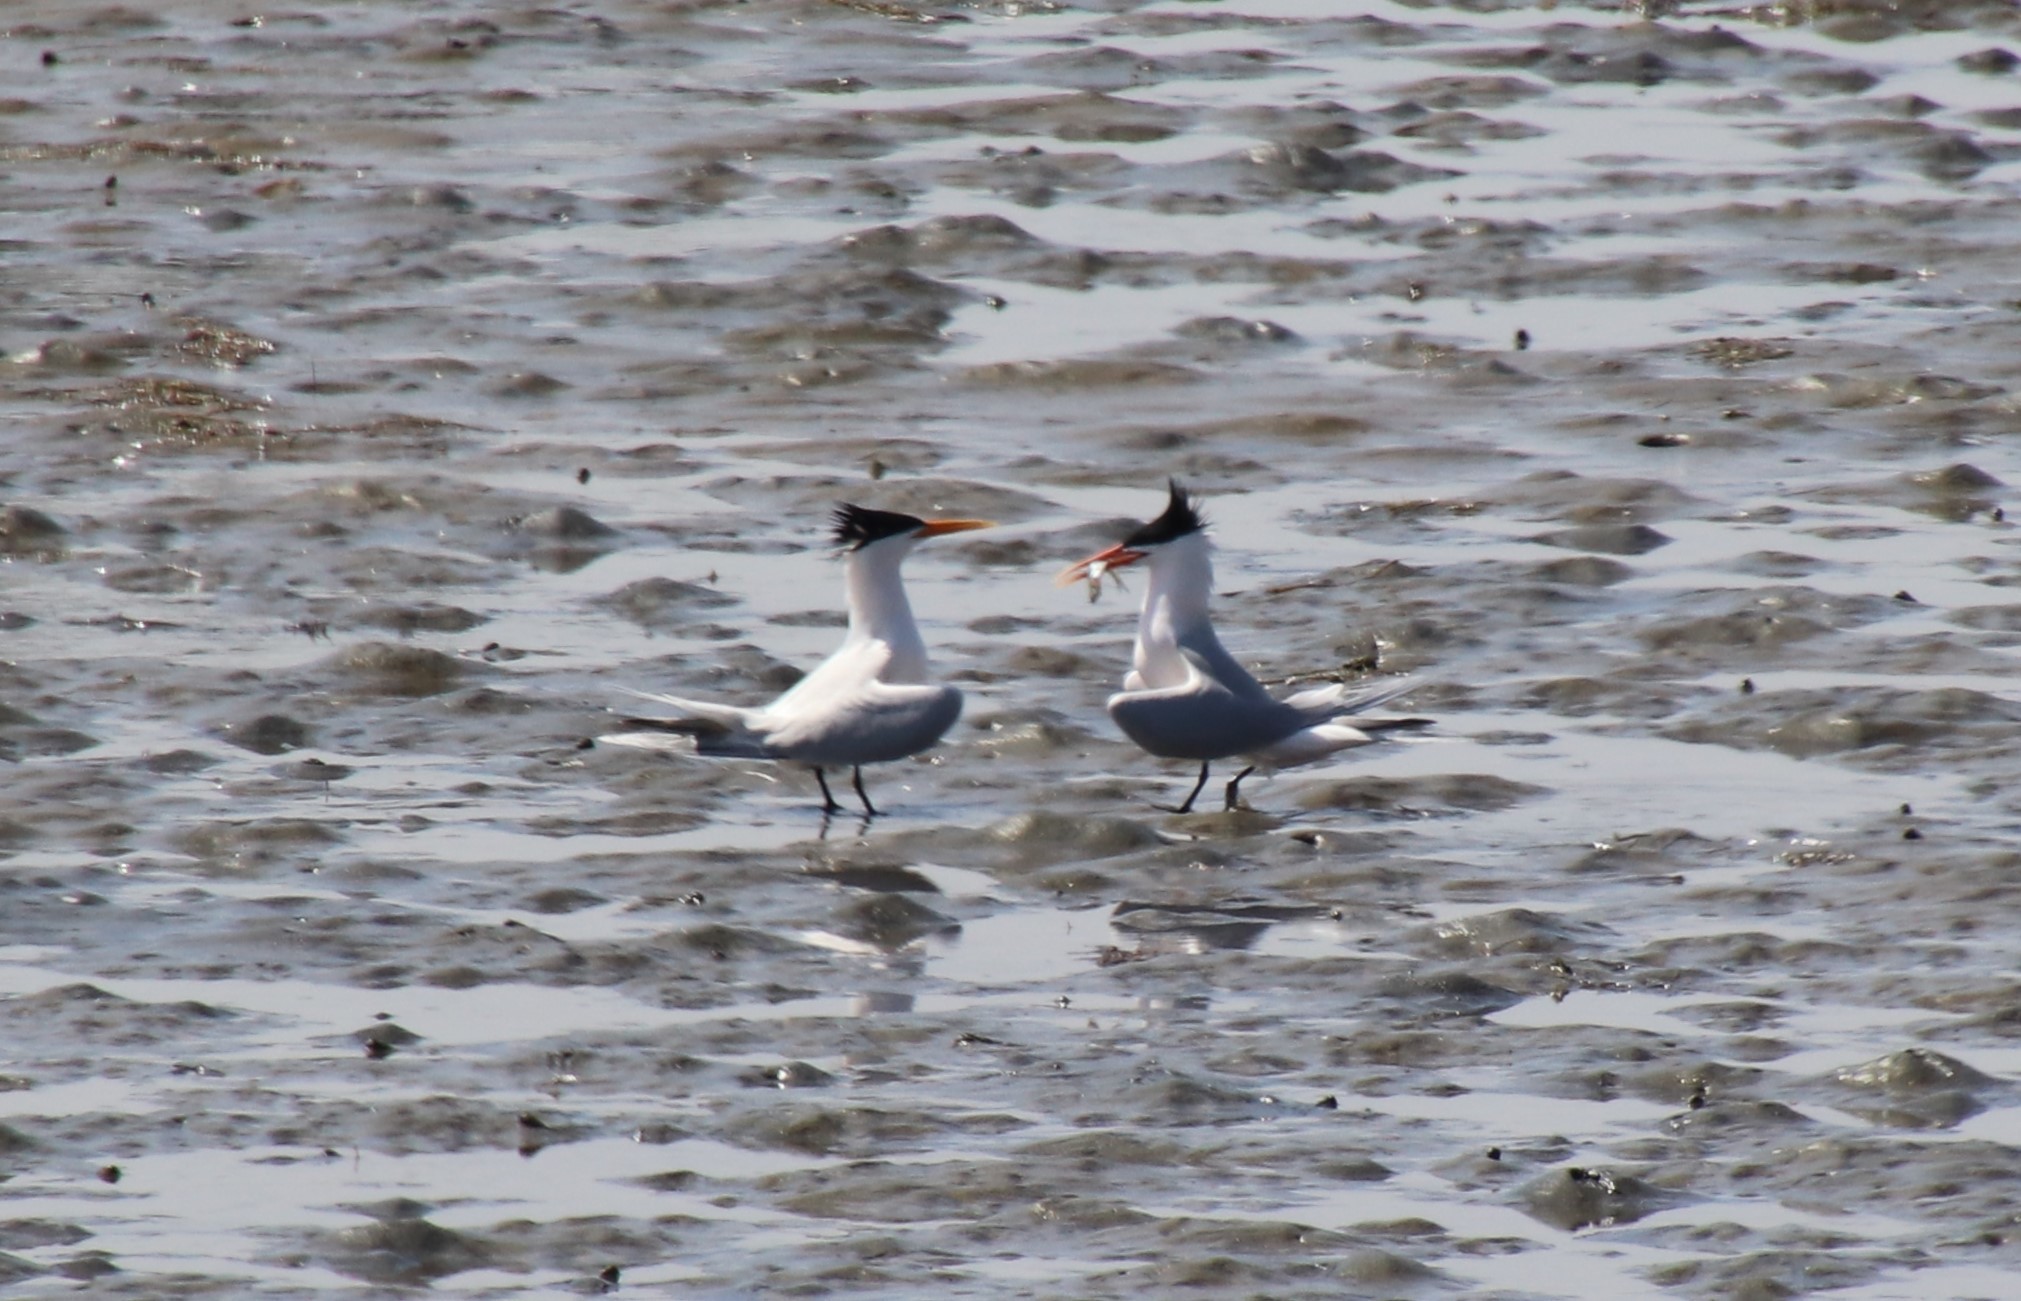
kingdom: Animalia
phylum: Chordata
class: Aves
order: Charadriiformes
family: Laridae
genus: Thalasseus
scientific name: Thalasseus elegans
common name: Elegant tern
